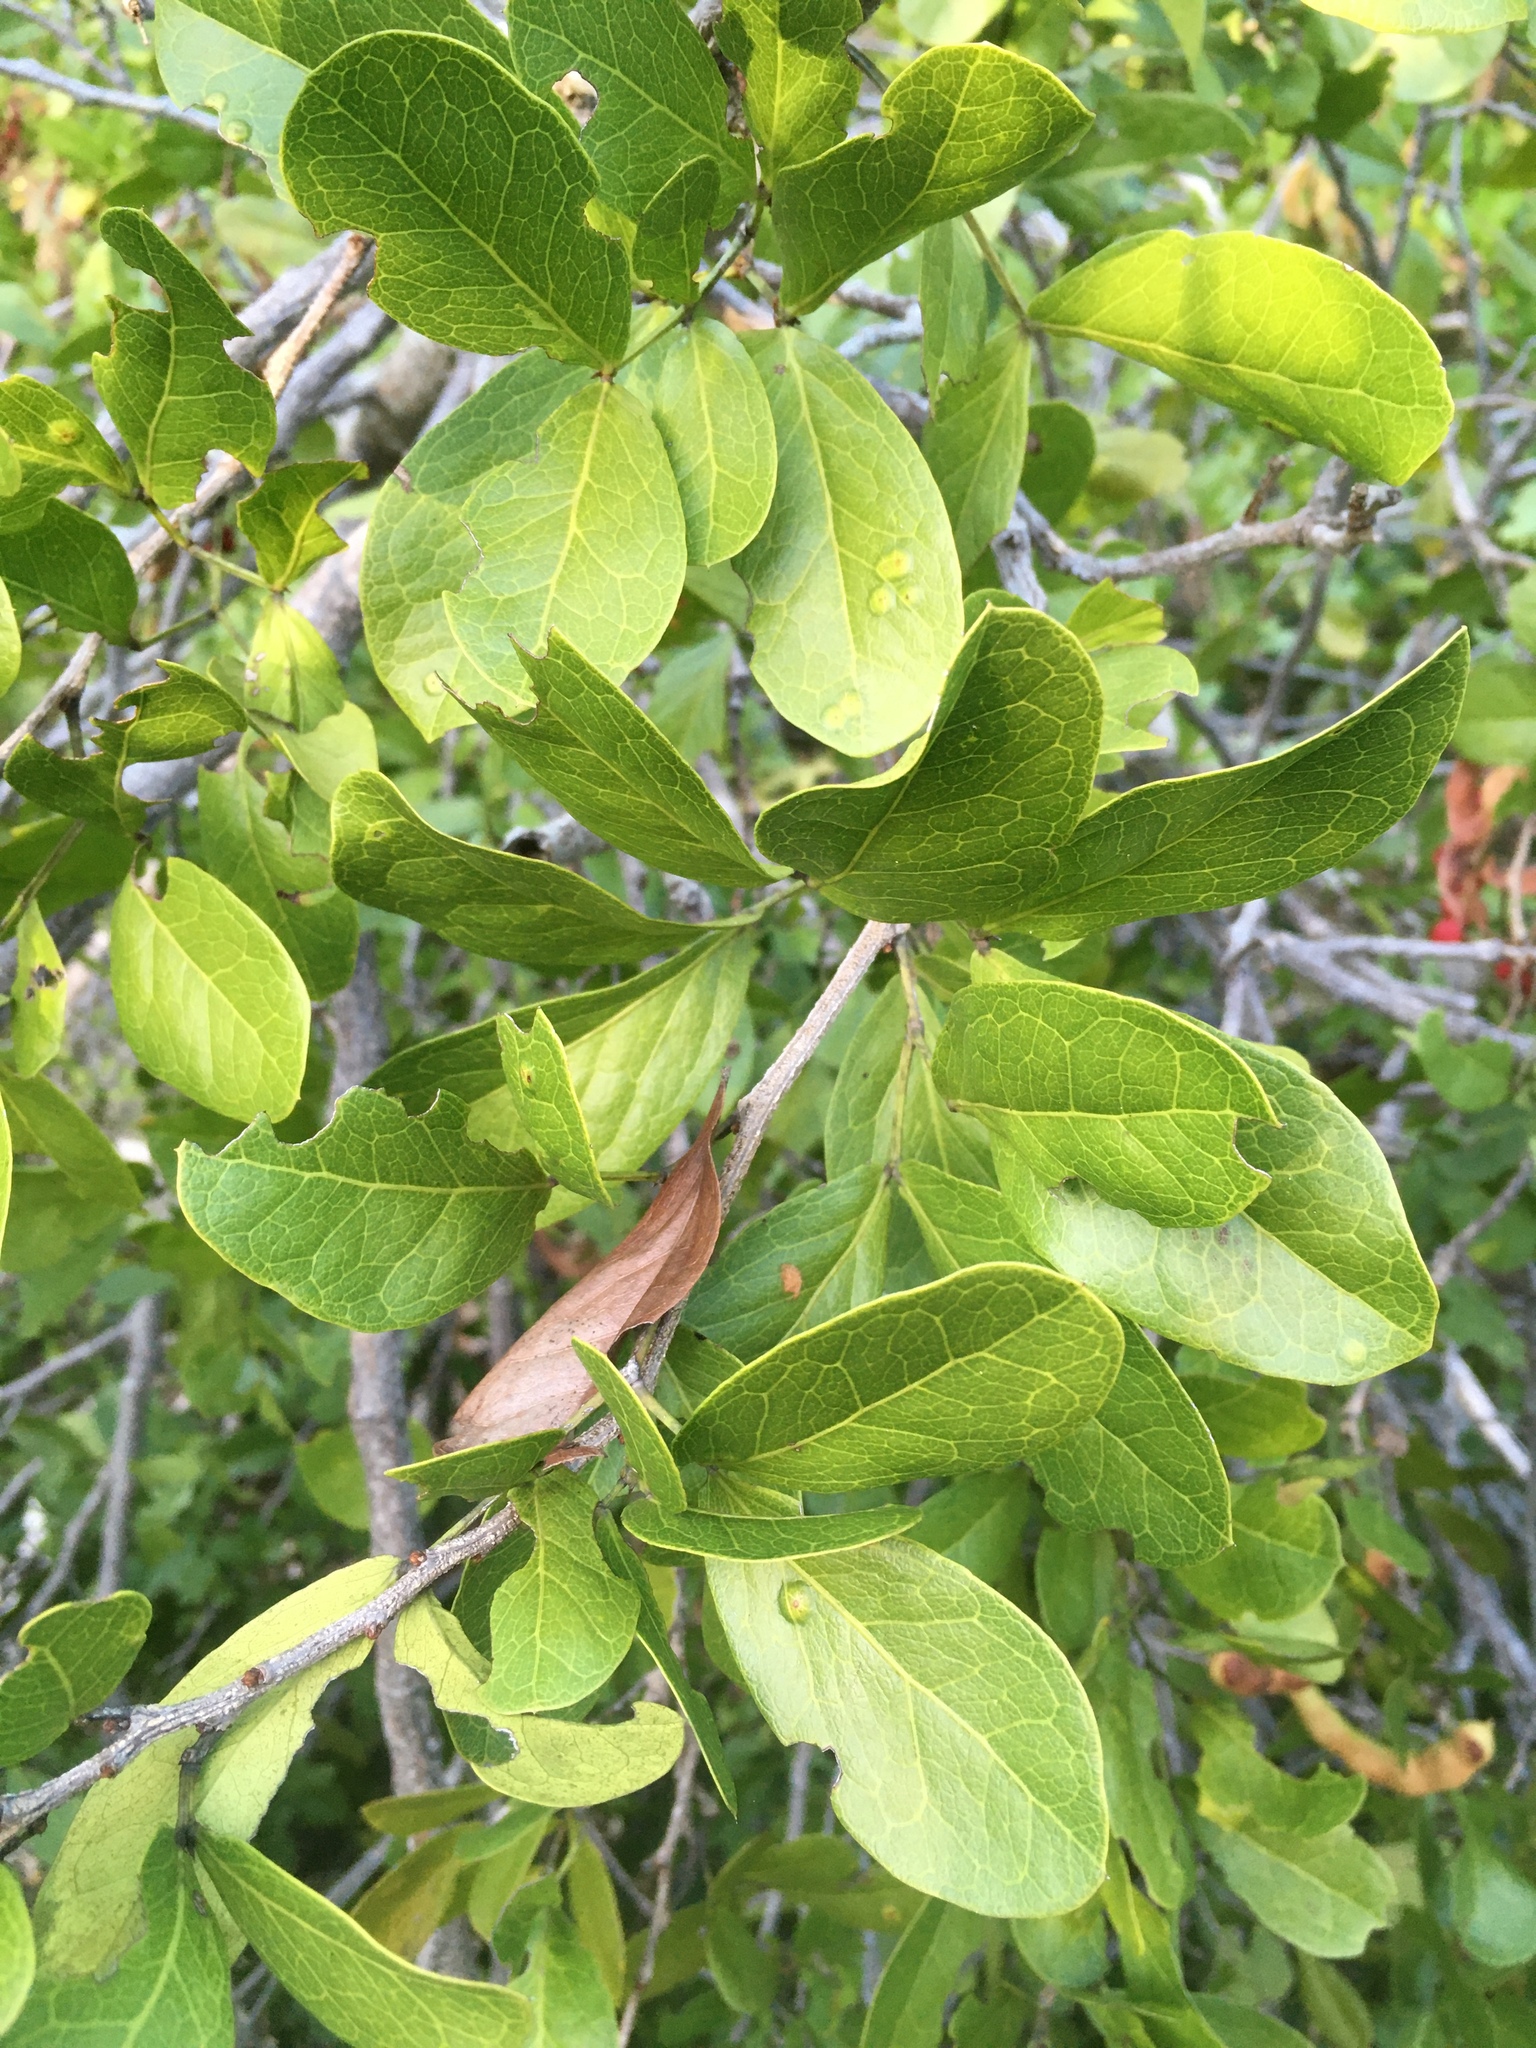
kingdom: Plantae
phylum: Tracheophyta
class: Magnoliopsida
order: Fabales
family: Fabaceae
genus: Pithecellobium
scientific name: Pithecellobium keyense
